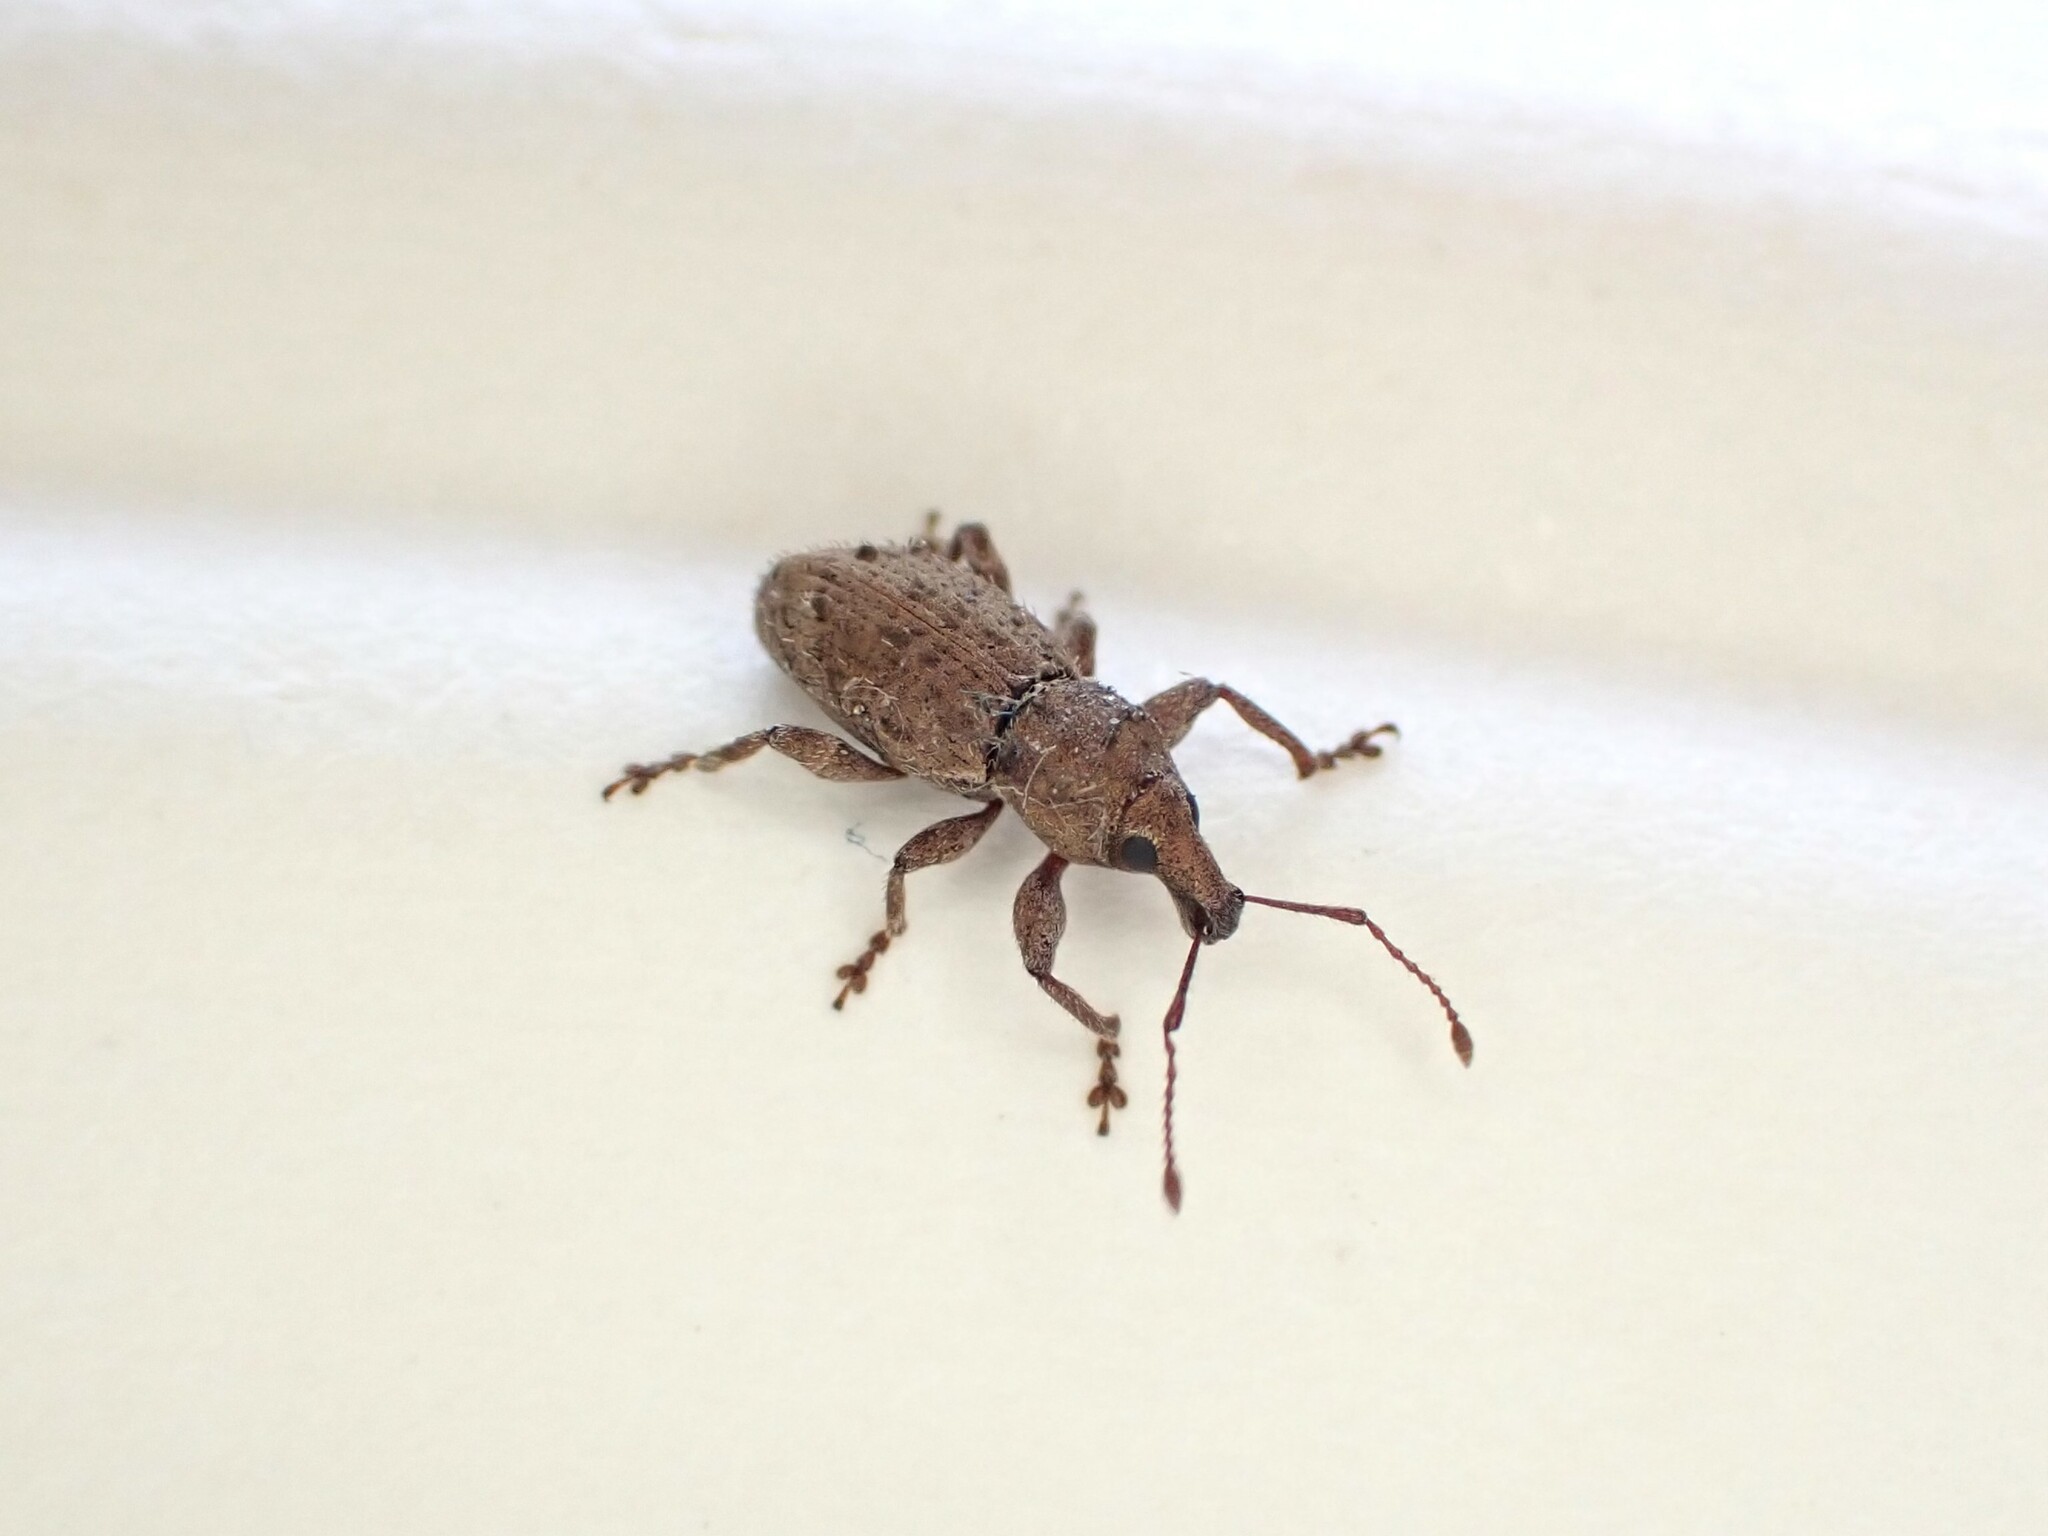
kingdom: Animalia
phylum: Arthropoda
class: Insecta
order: Coleoptera
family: Curculionidae
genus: Chalepistes
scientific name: Chalepistes compressus
